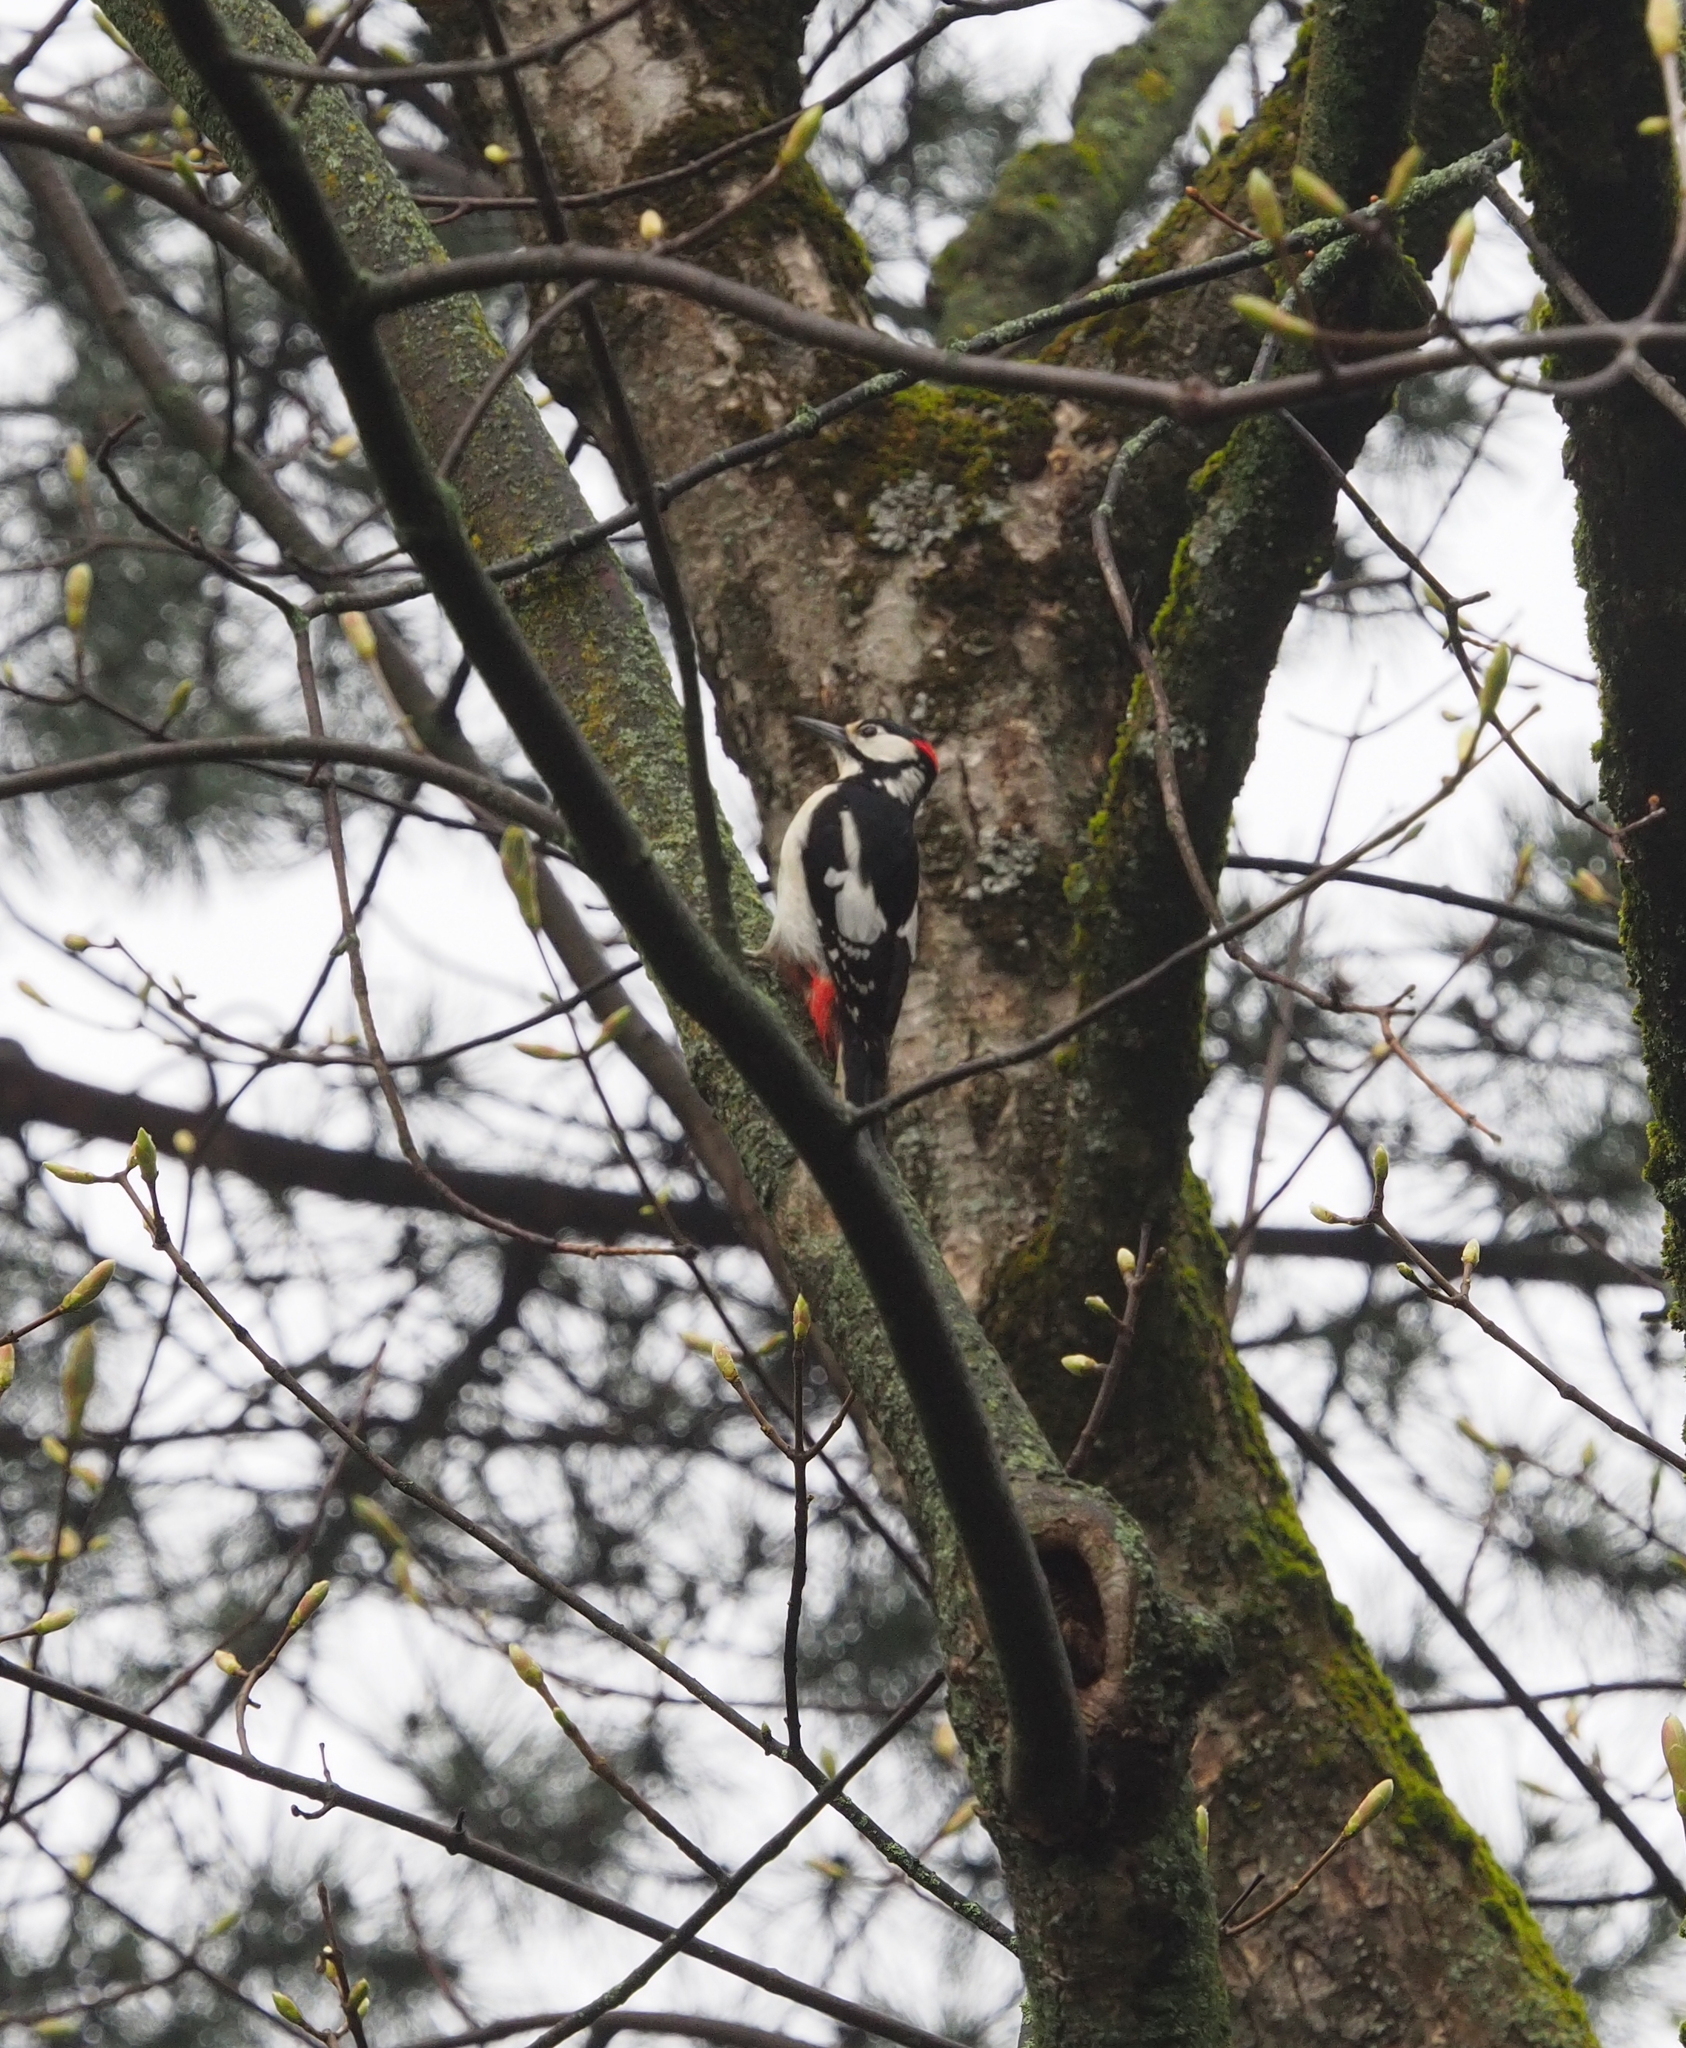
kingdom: Animalia
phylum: Chordata
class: Aves
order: Piciformes
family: Picidae
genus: Dendrocopos
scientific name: Dendrocopos major
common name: Great spotted woodpecker
